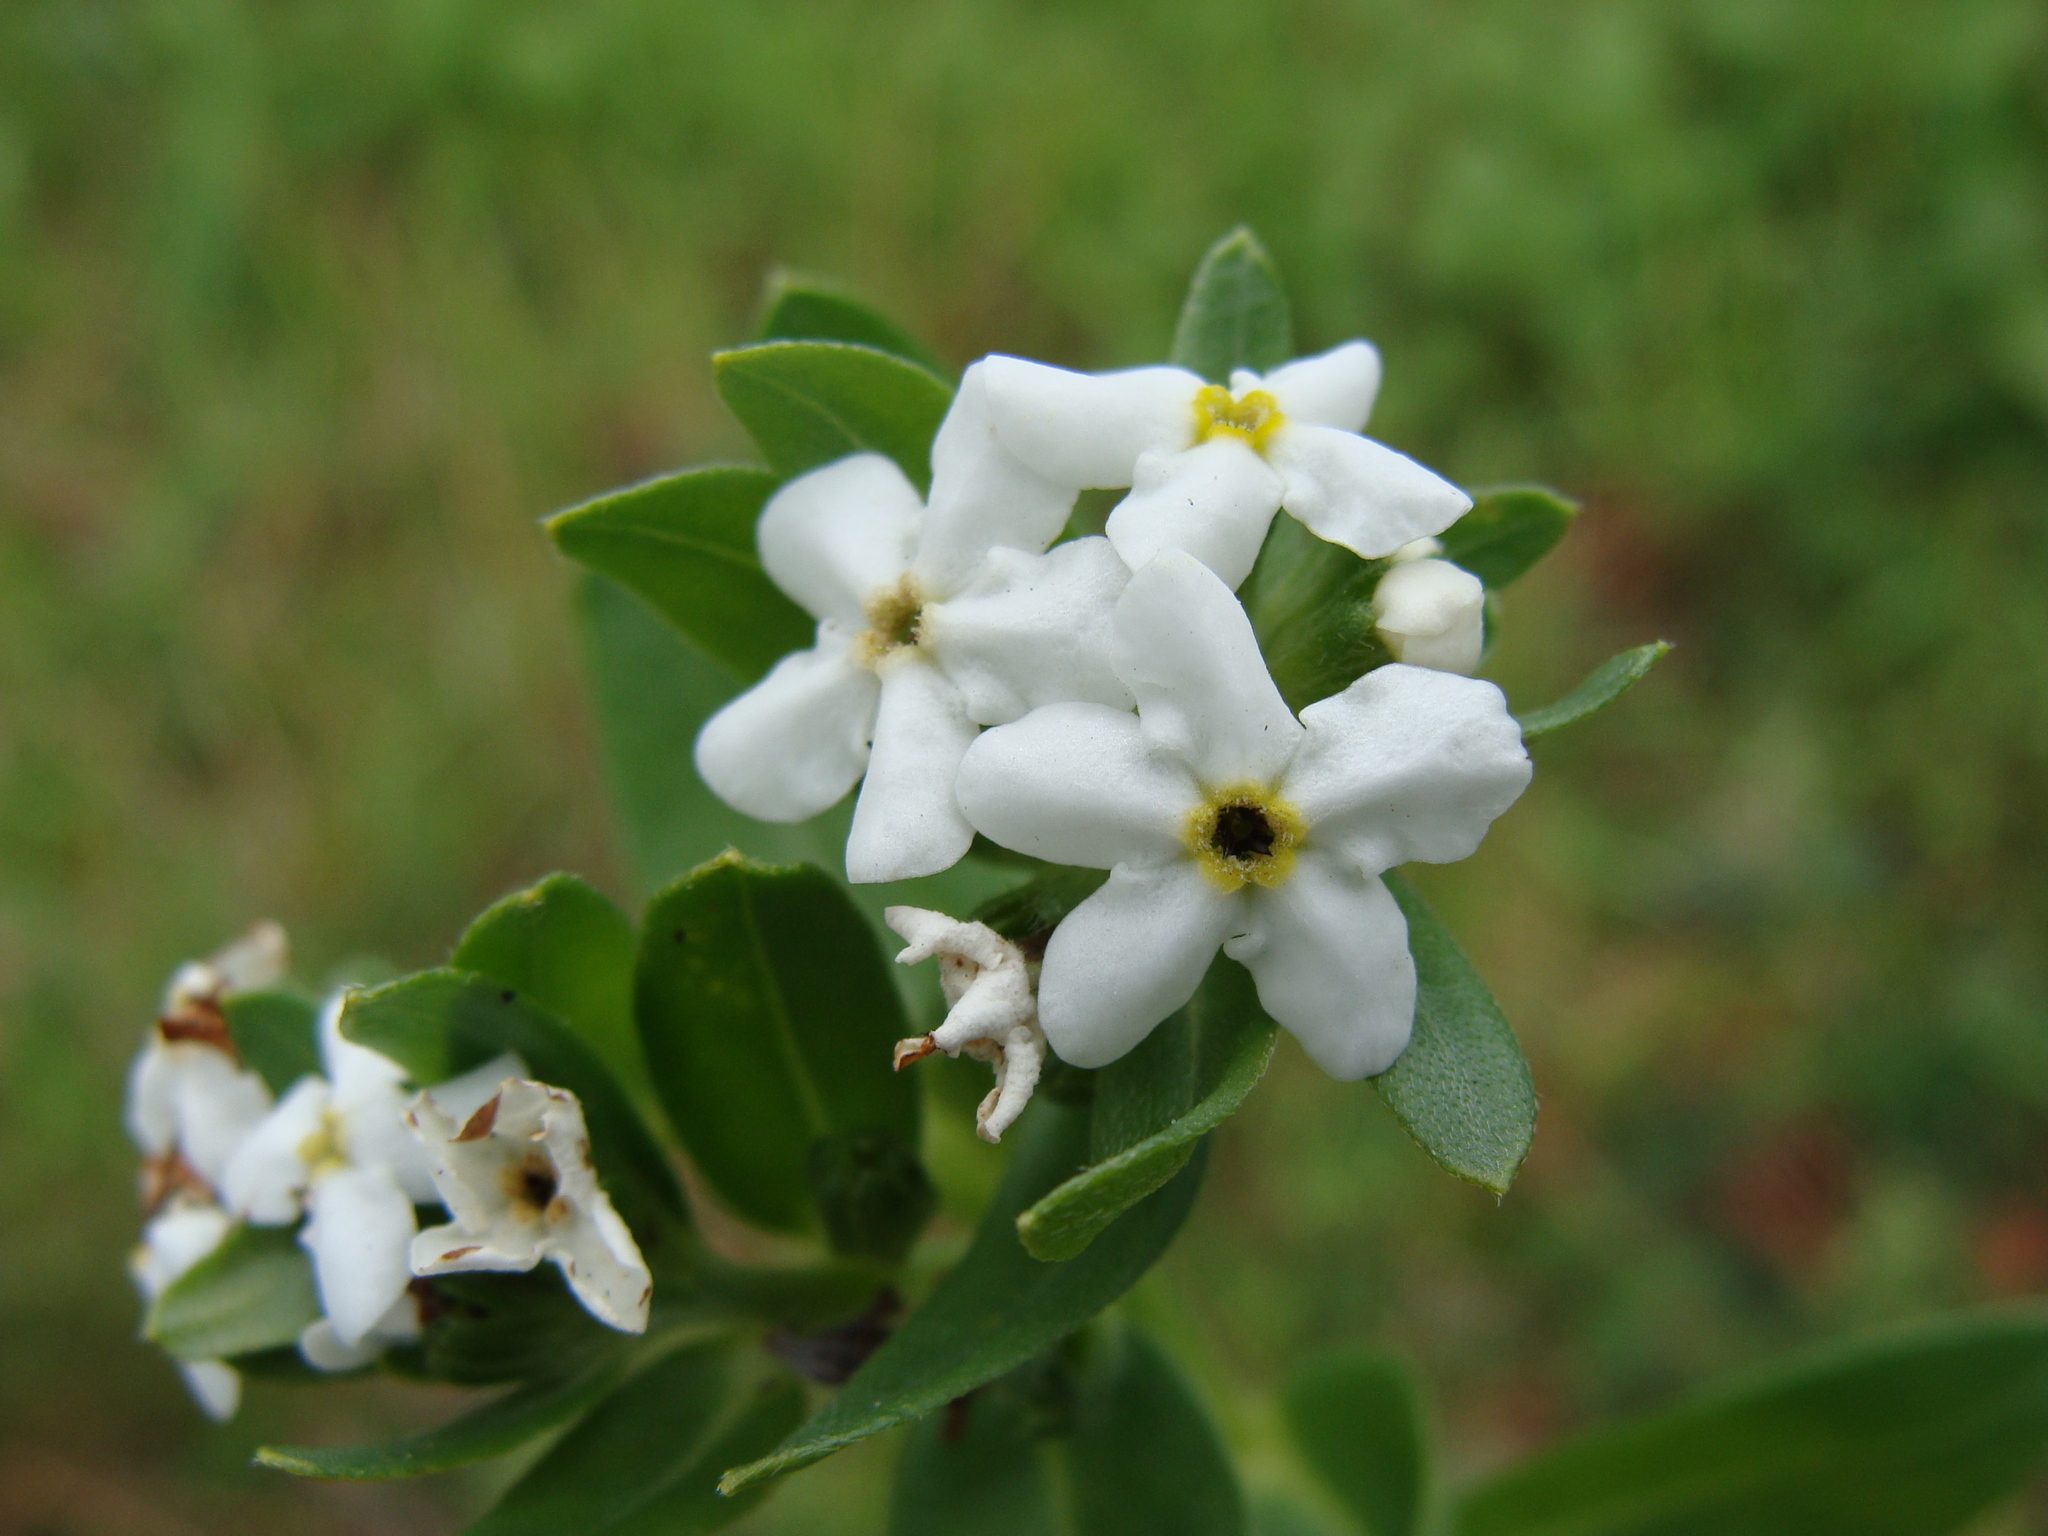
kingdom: Plantae
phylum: Tracheophyta
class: Magnoliopsida
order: Boraginales
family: Boraginaceae
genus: Lithospermum
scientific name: Lithospermum distichum
